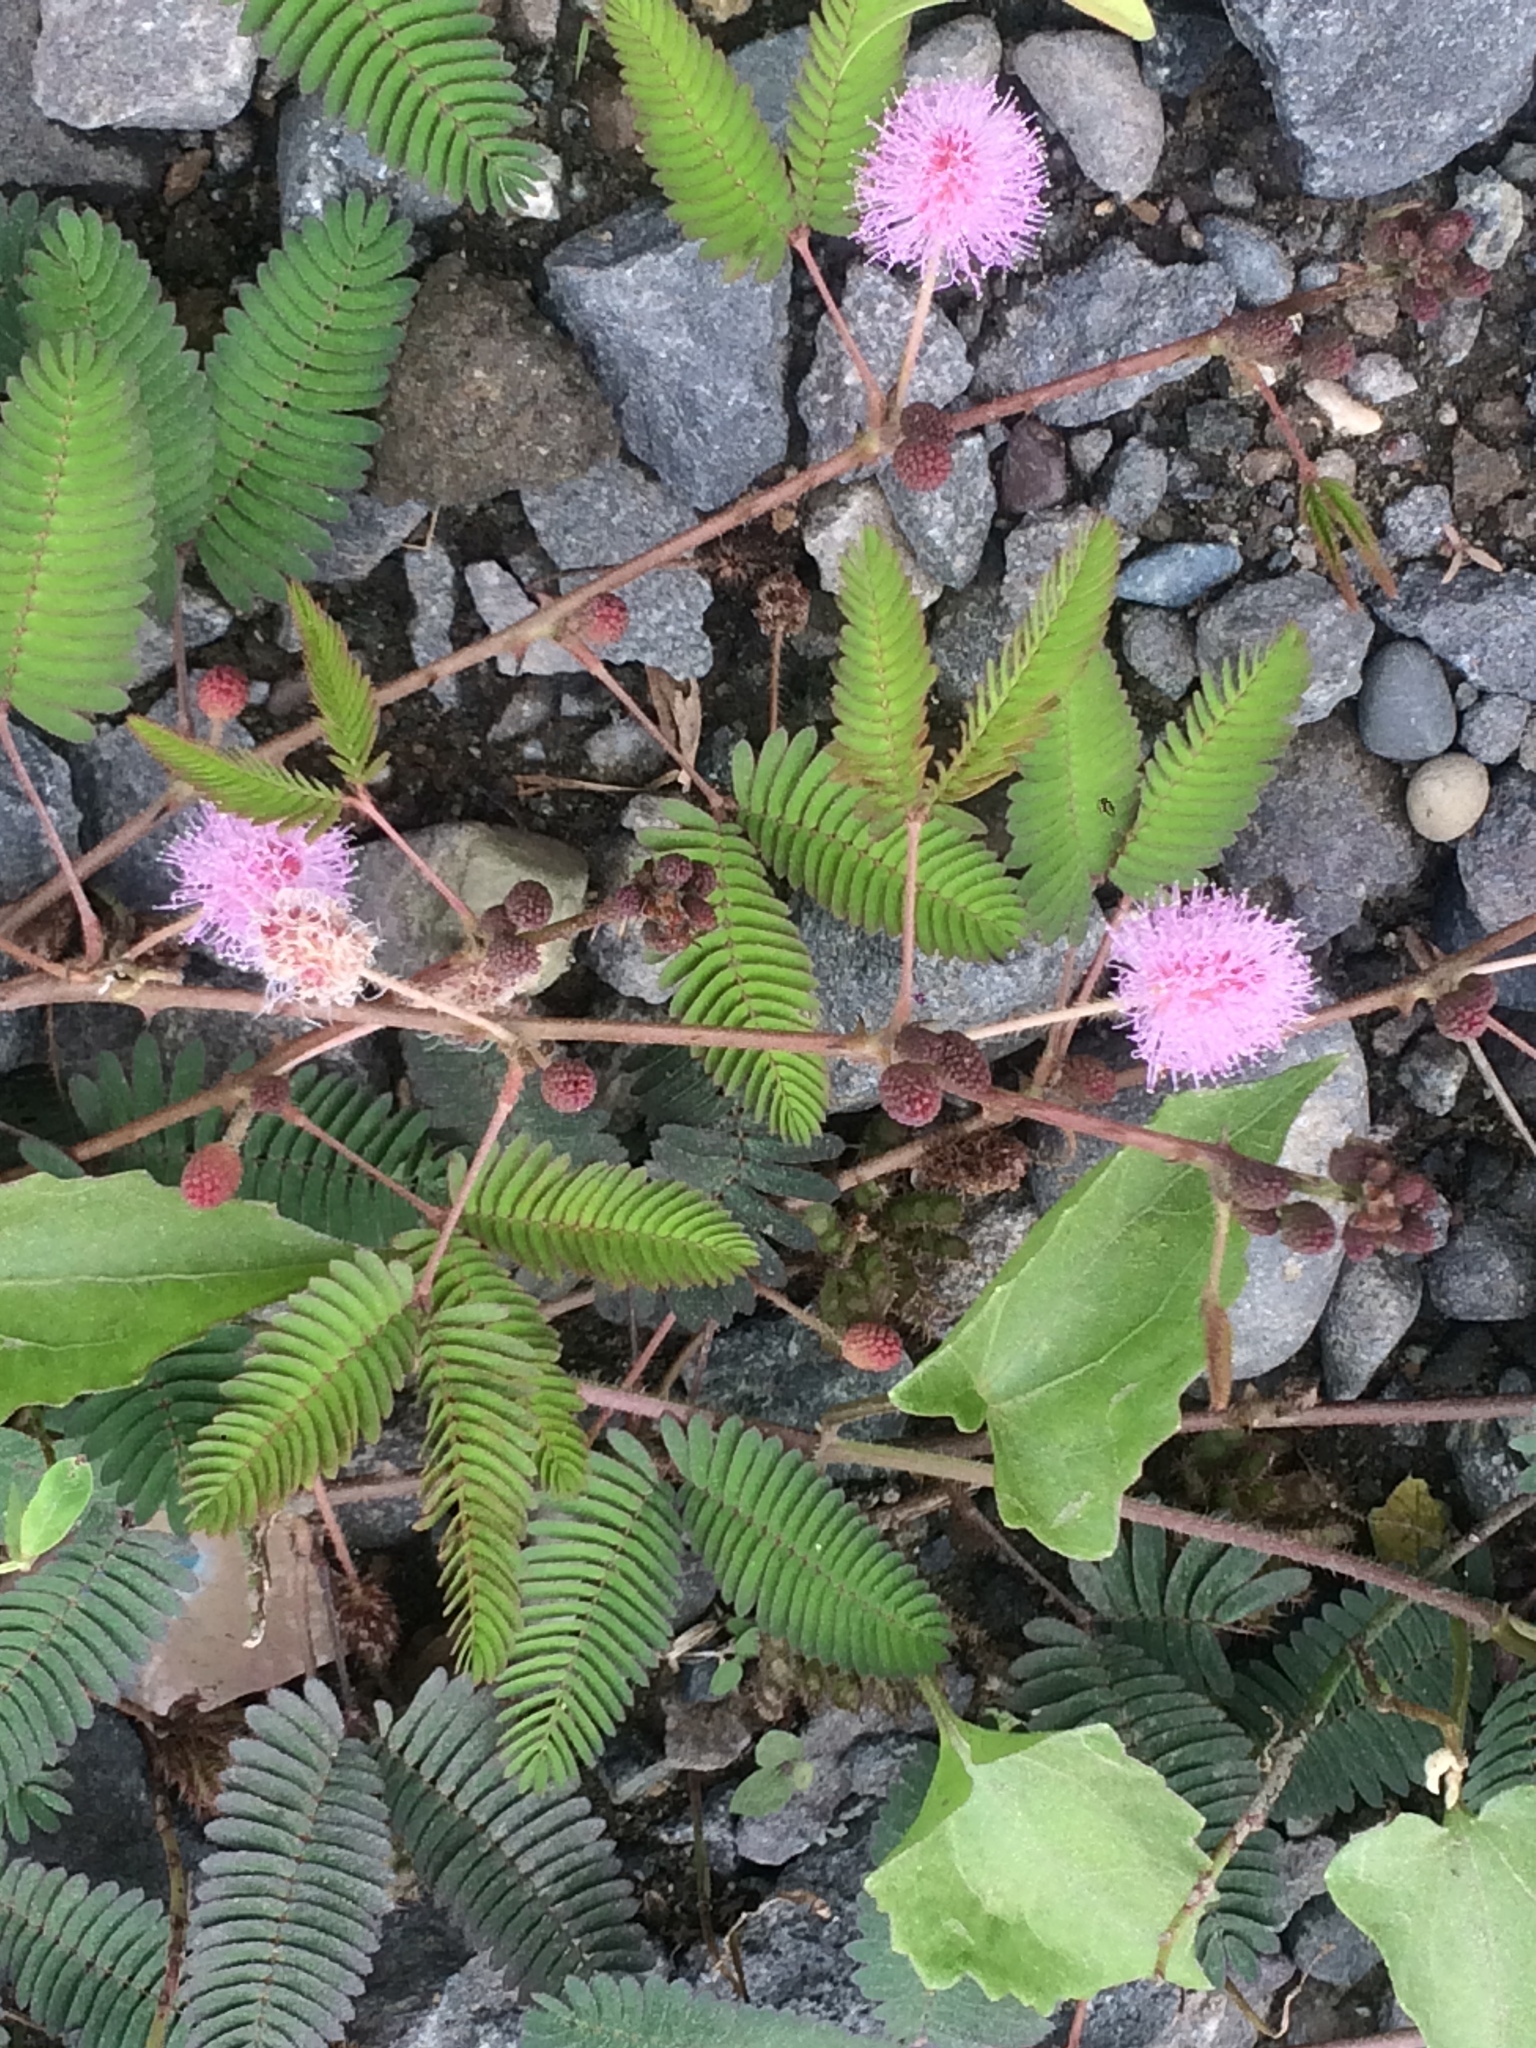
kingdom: Plantae
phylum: Tracheophyta
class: Magnoliopsida
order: Fabales
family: Fabaceae
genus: Mimosa
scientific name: Mimosa pudica
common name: Sensitive plant
